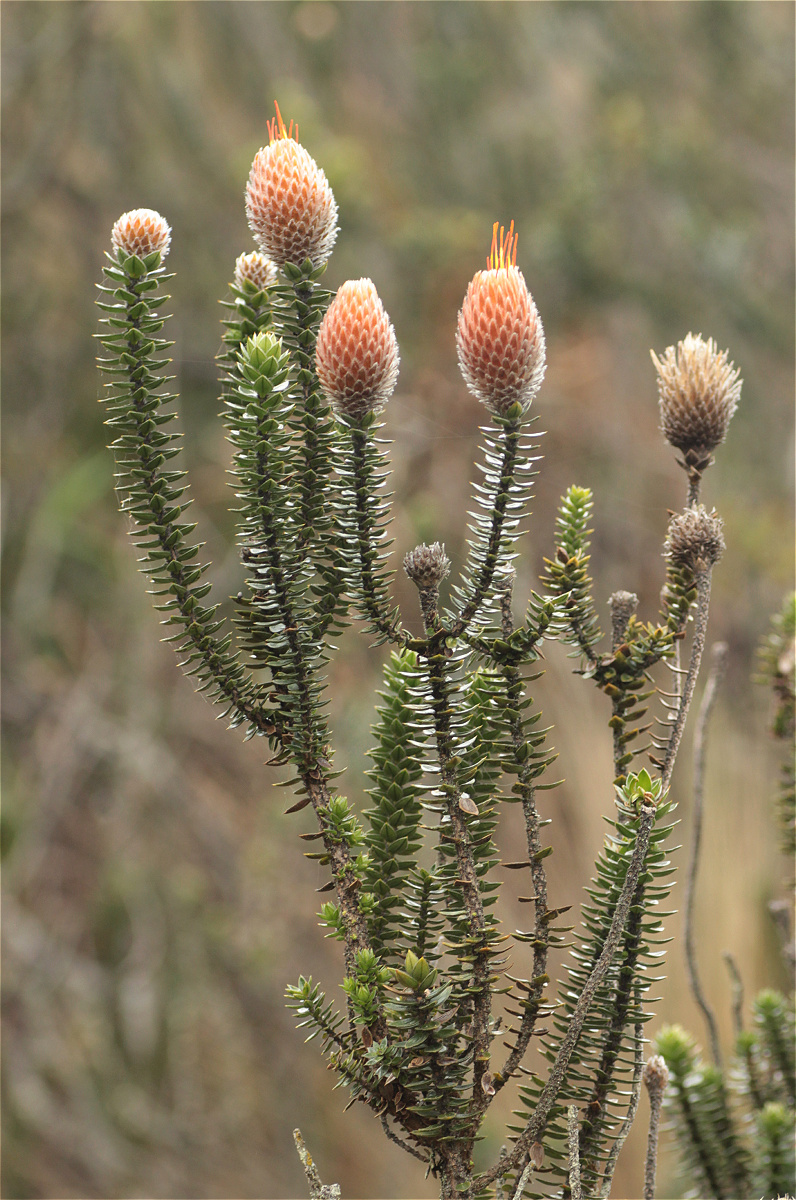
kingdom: Plantae
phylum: Tracheophyta
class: Magnoliopsida
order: Asterales
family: Asteraceae
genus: Chuquiraga
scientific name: Chuquiraga jussieui
